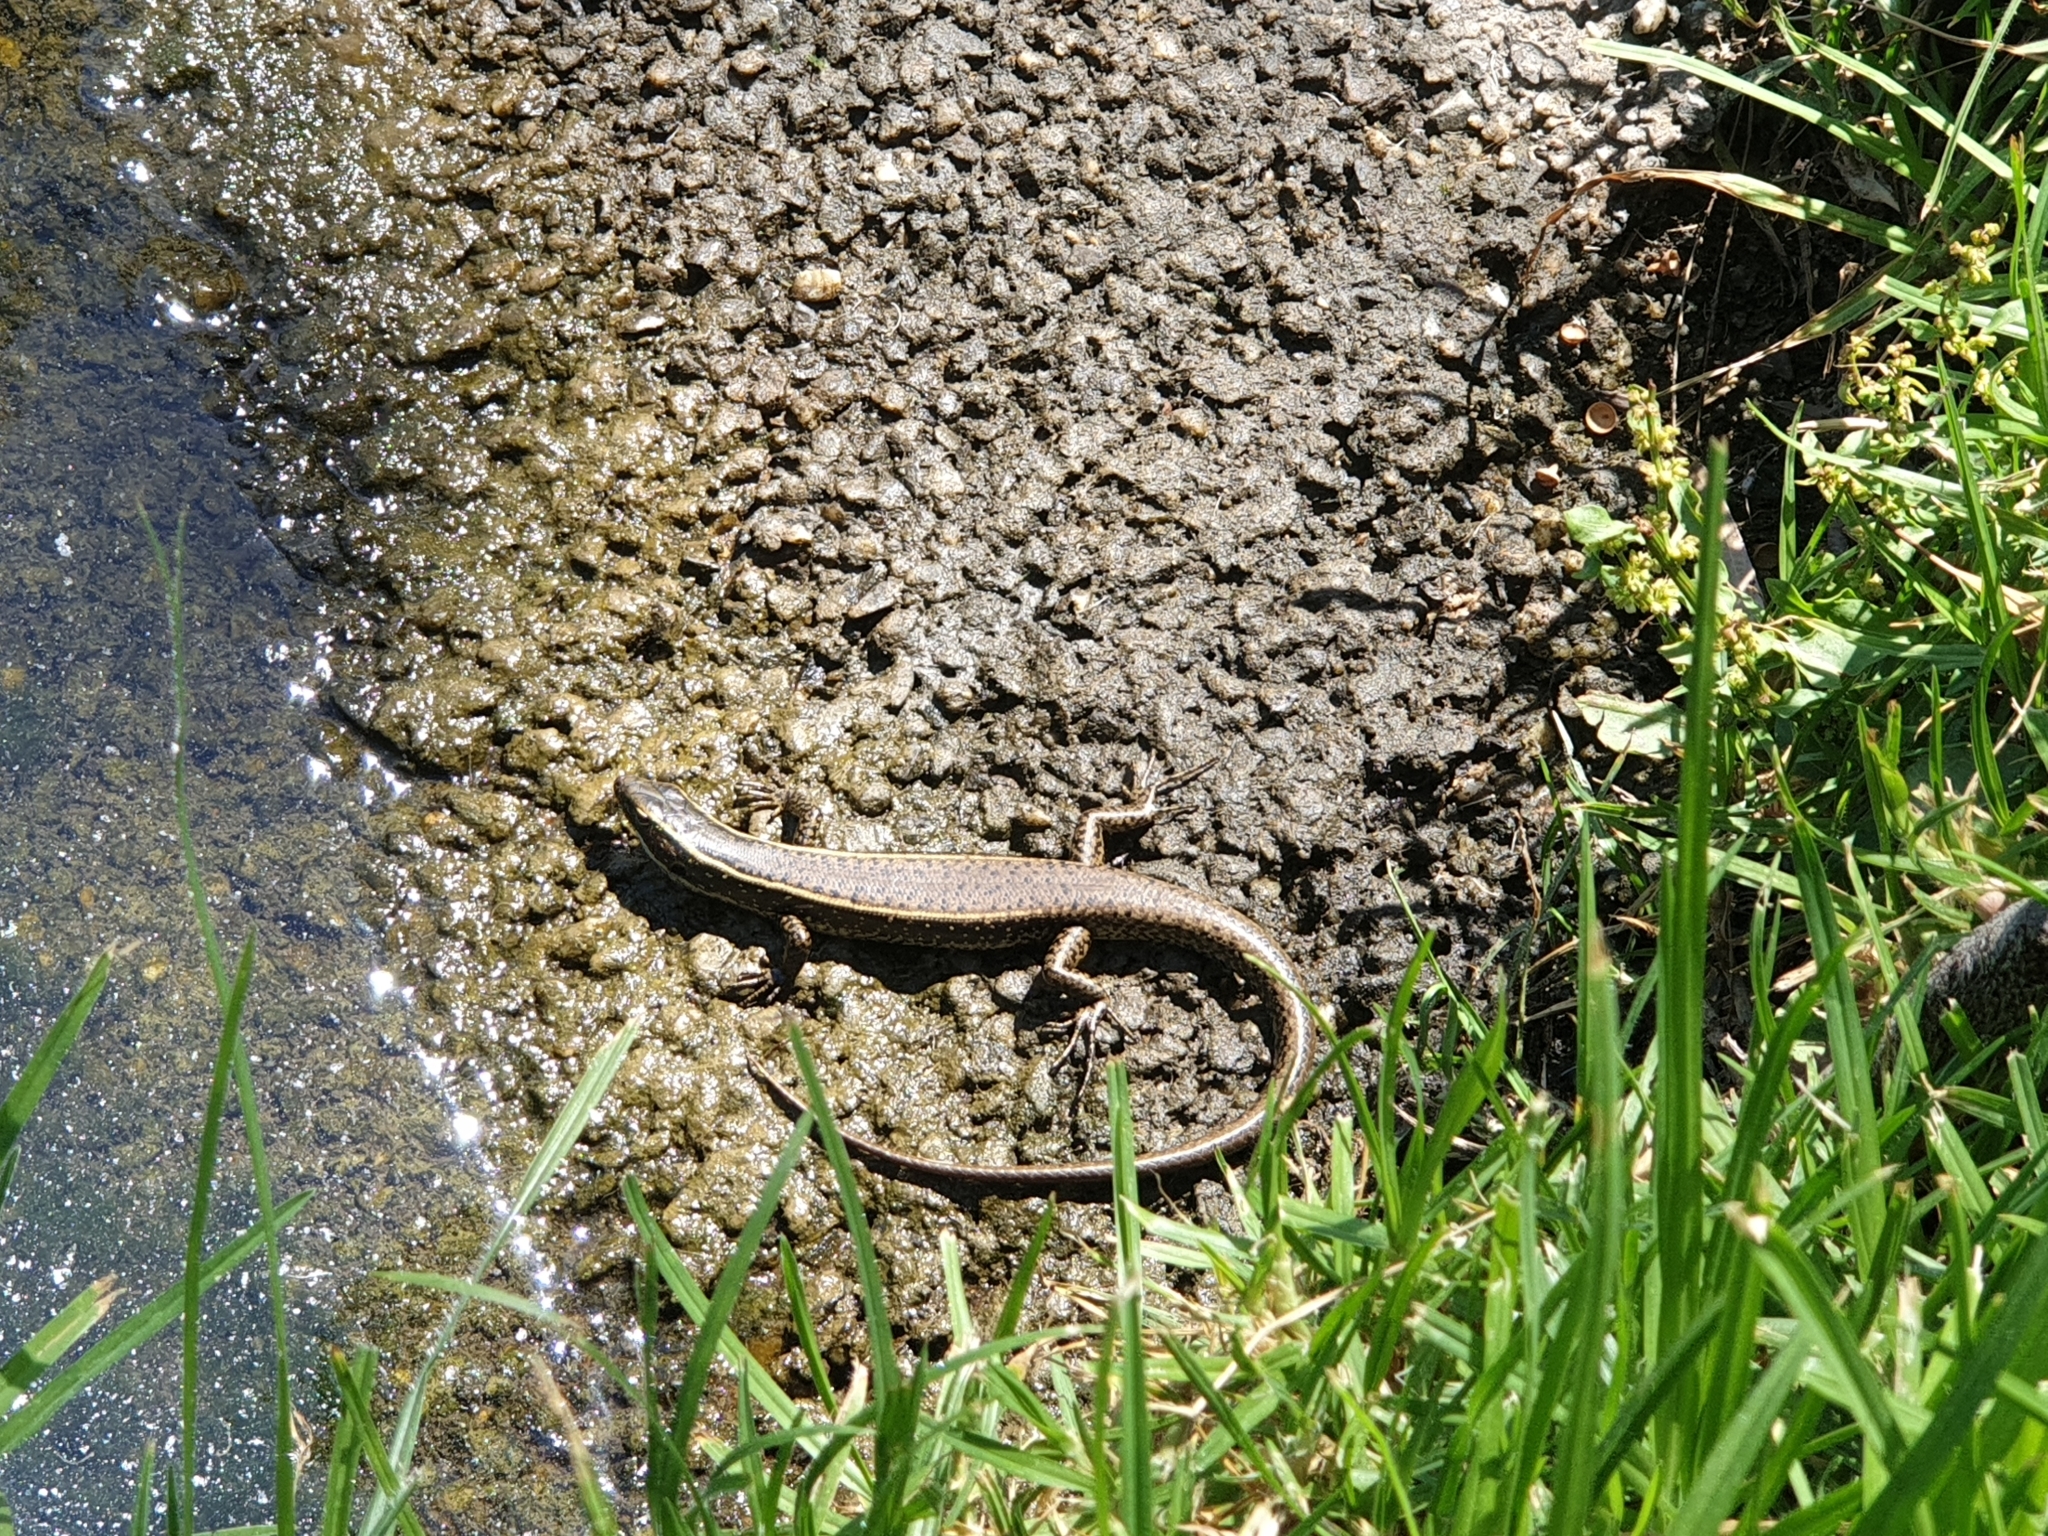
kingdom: Animalia
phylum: Chordata
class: Squamata
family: Scincidae
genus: Eulamprus
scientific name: Eulamprus quoyii
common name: Eastern water skink
